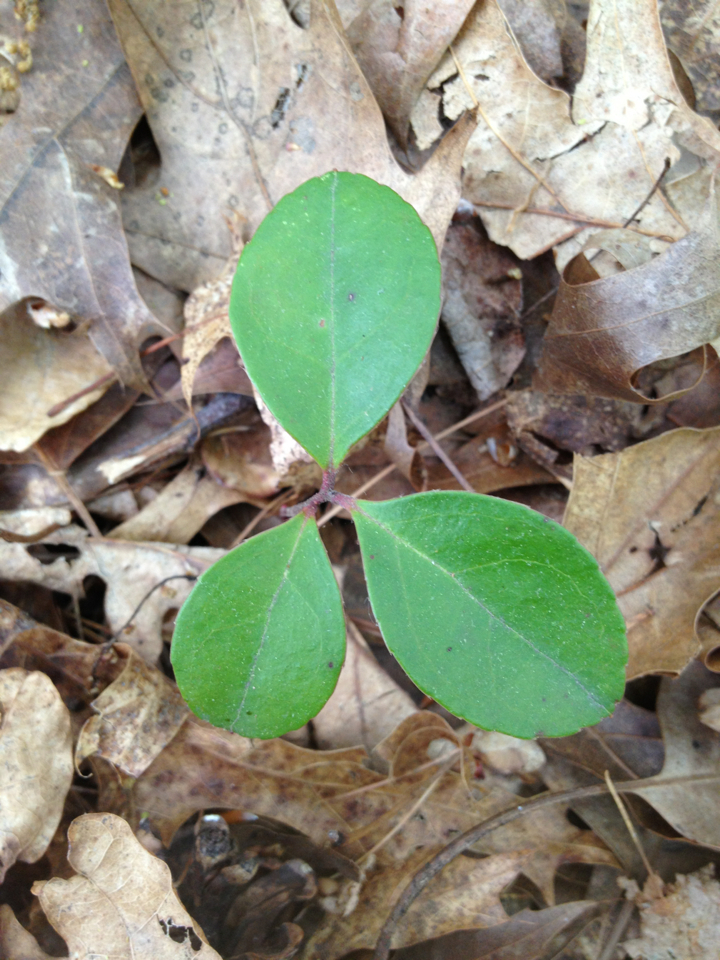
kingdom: Plantae
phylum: Tracheophyta
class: Magnoliopsida
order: Ericales
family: Ericaceae
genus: Gaultheria
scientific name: Gaultheria procumbens
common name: Checkerberry
